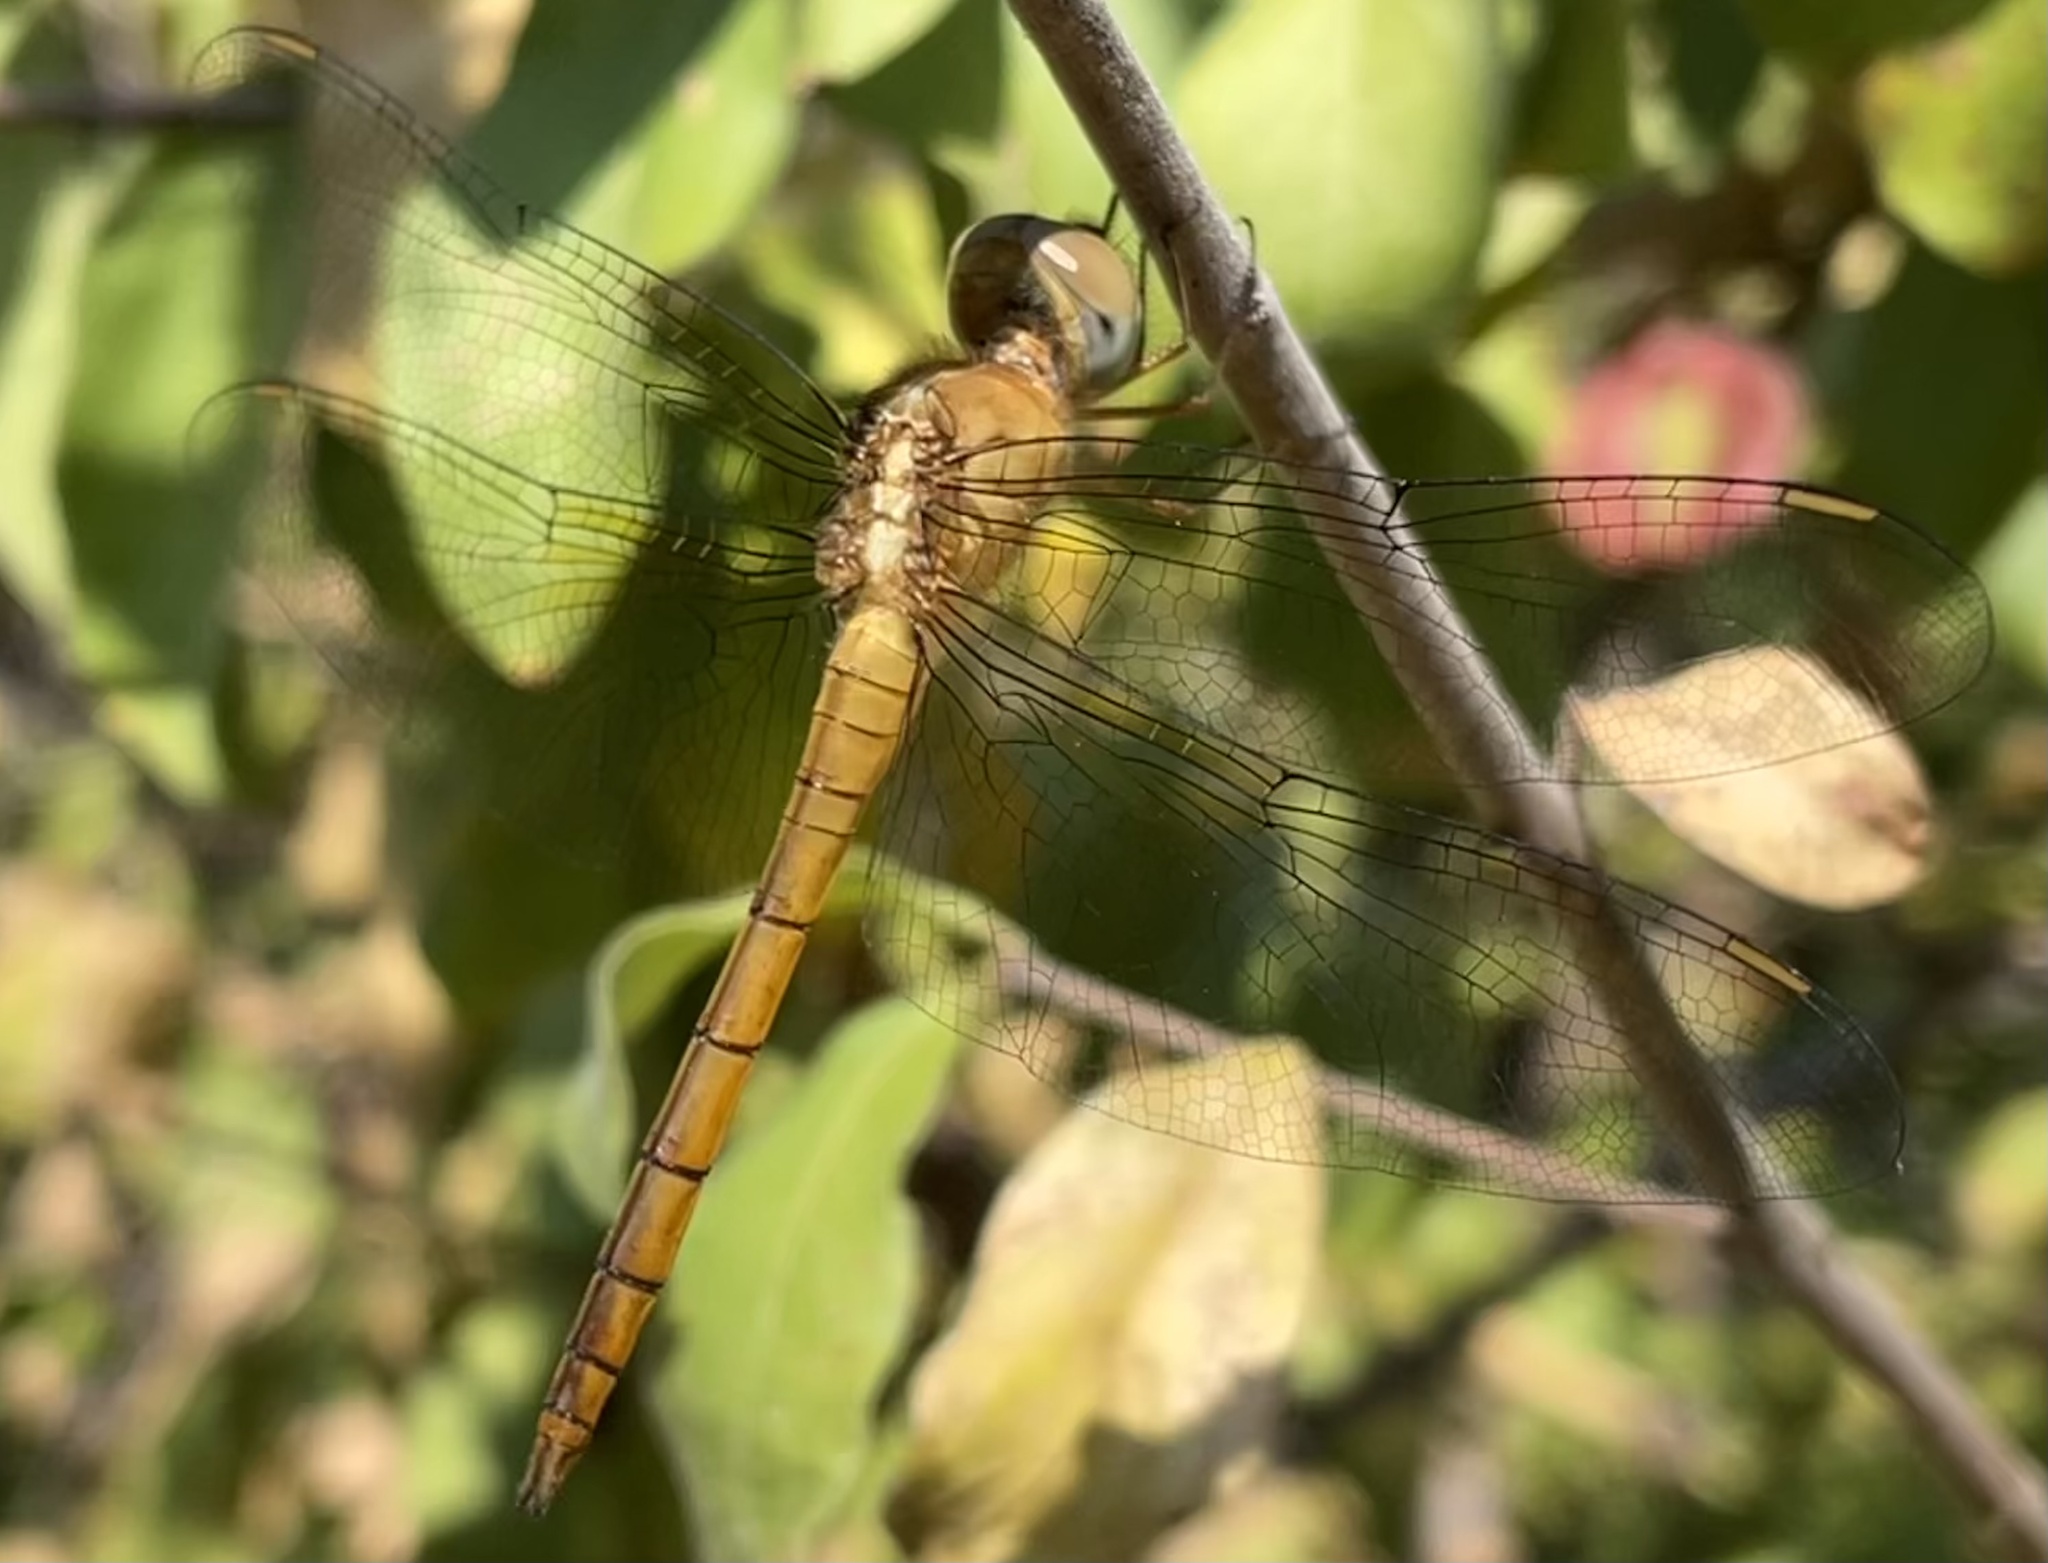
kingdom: Animalia
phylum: Arthropoda
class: Insecta
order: Odonata
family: Libellulidae
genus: Tholymis
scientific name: Tholymis tillarga
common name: Coral-tailed cloud wing
